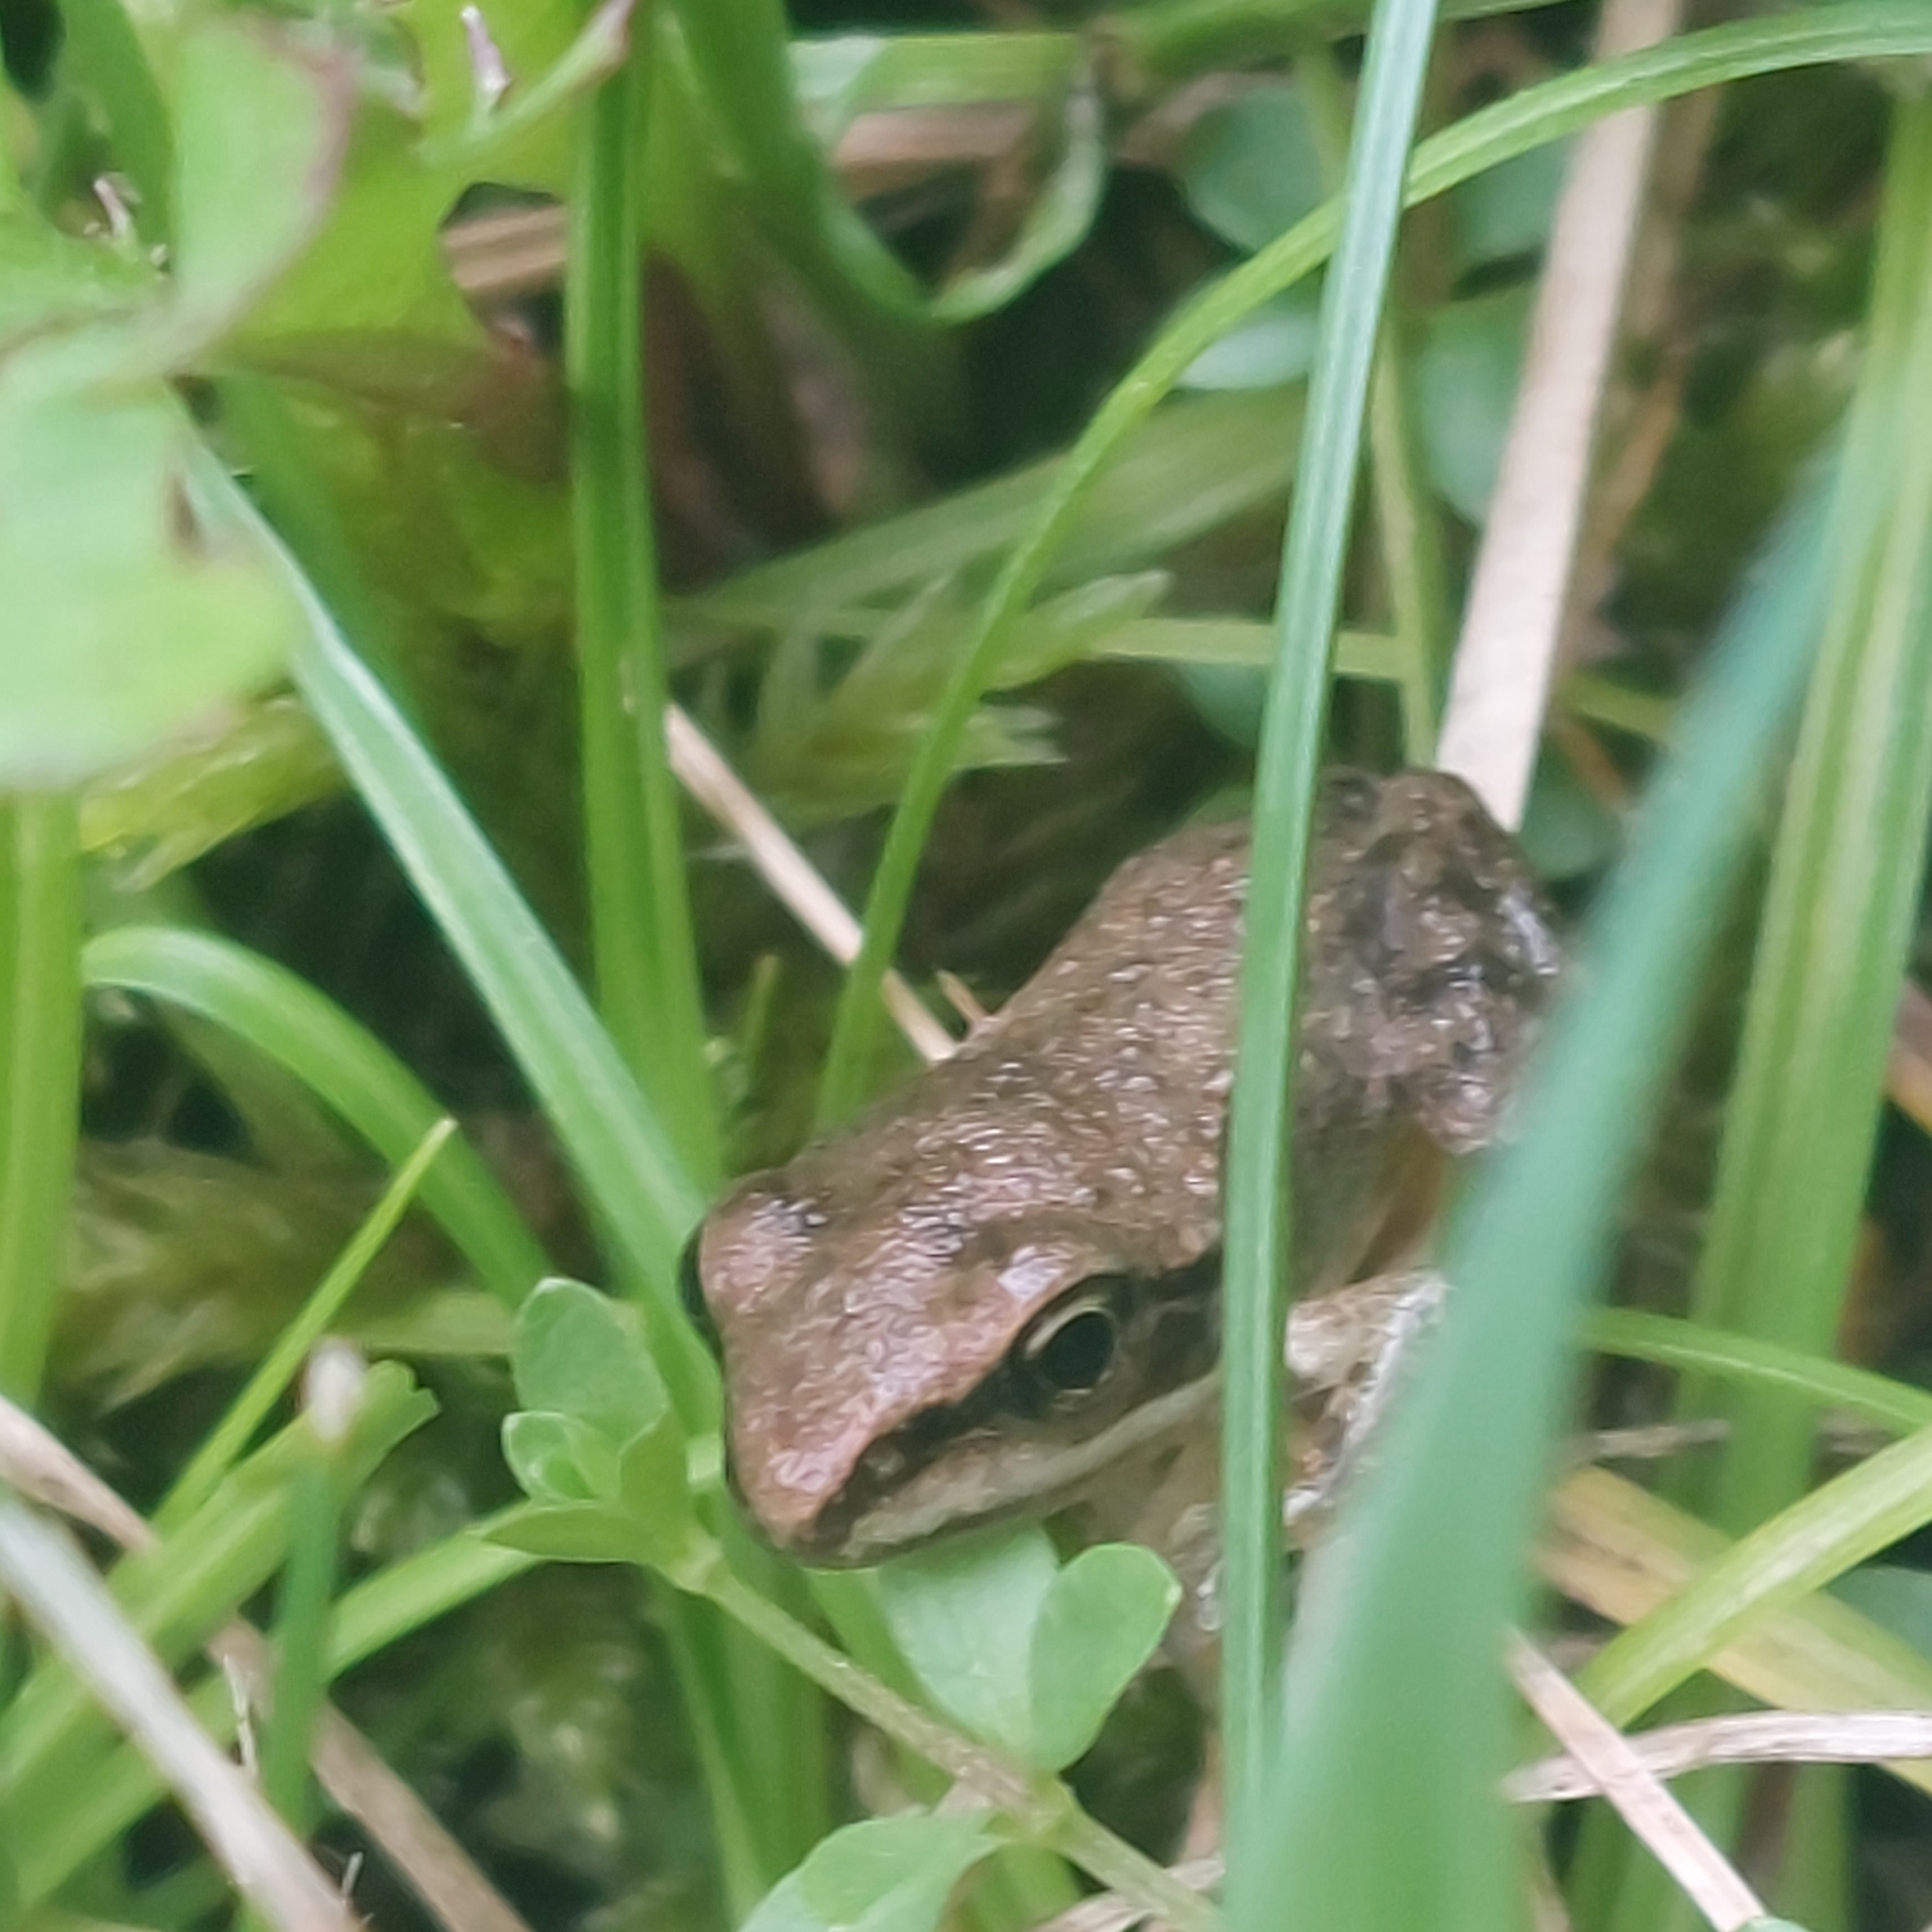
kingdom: Animalia
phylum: Chordata
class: Amphibia
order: Anura
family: Ranidae
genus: Lithobates
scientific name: Lithobates sylvaticus
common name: Wood frog
